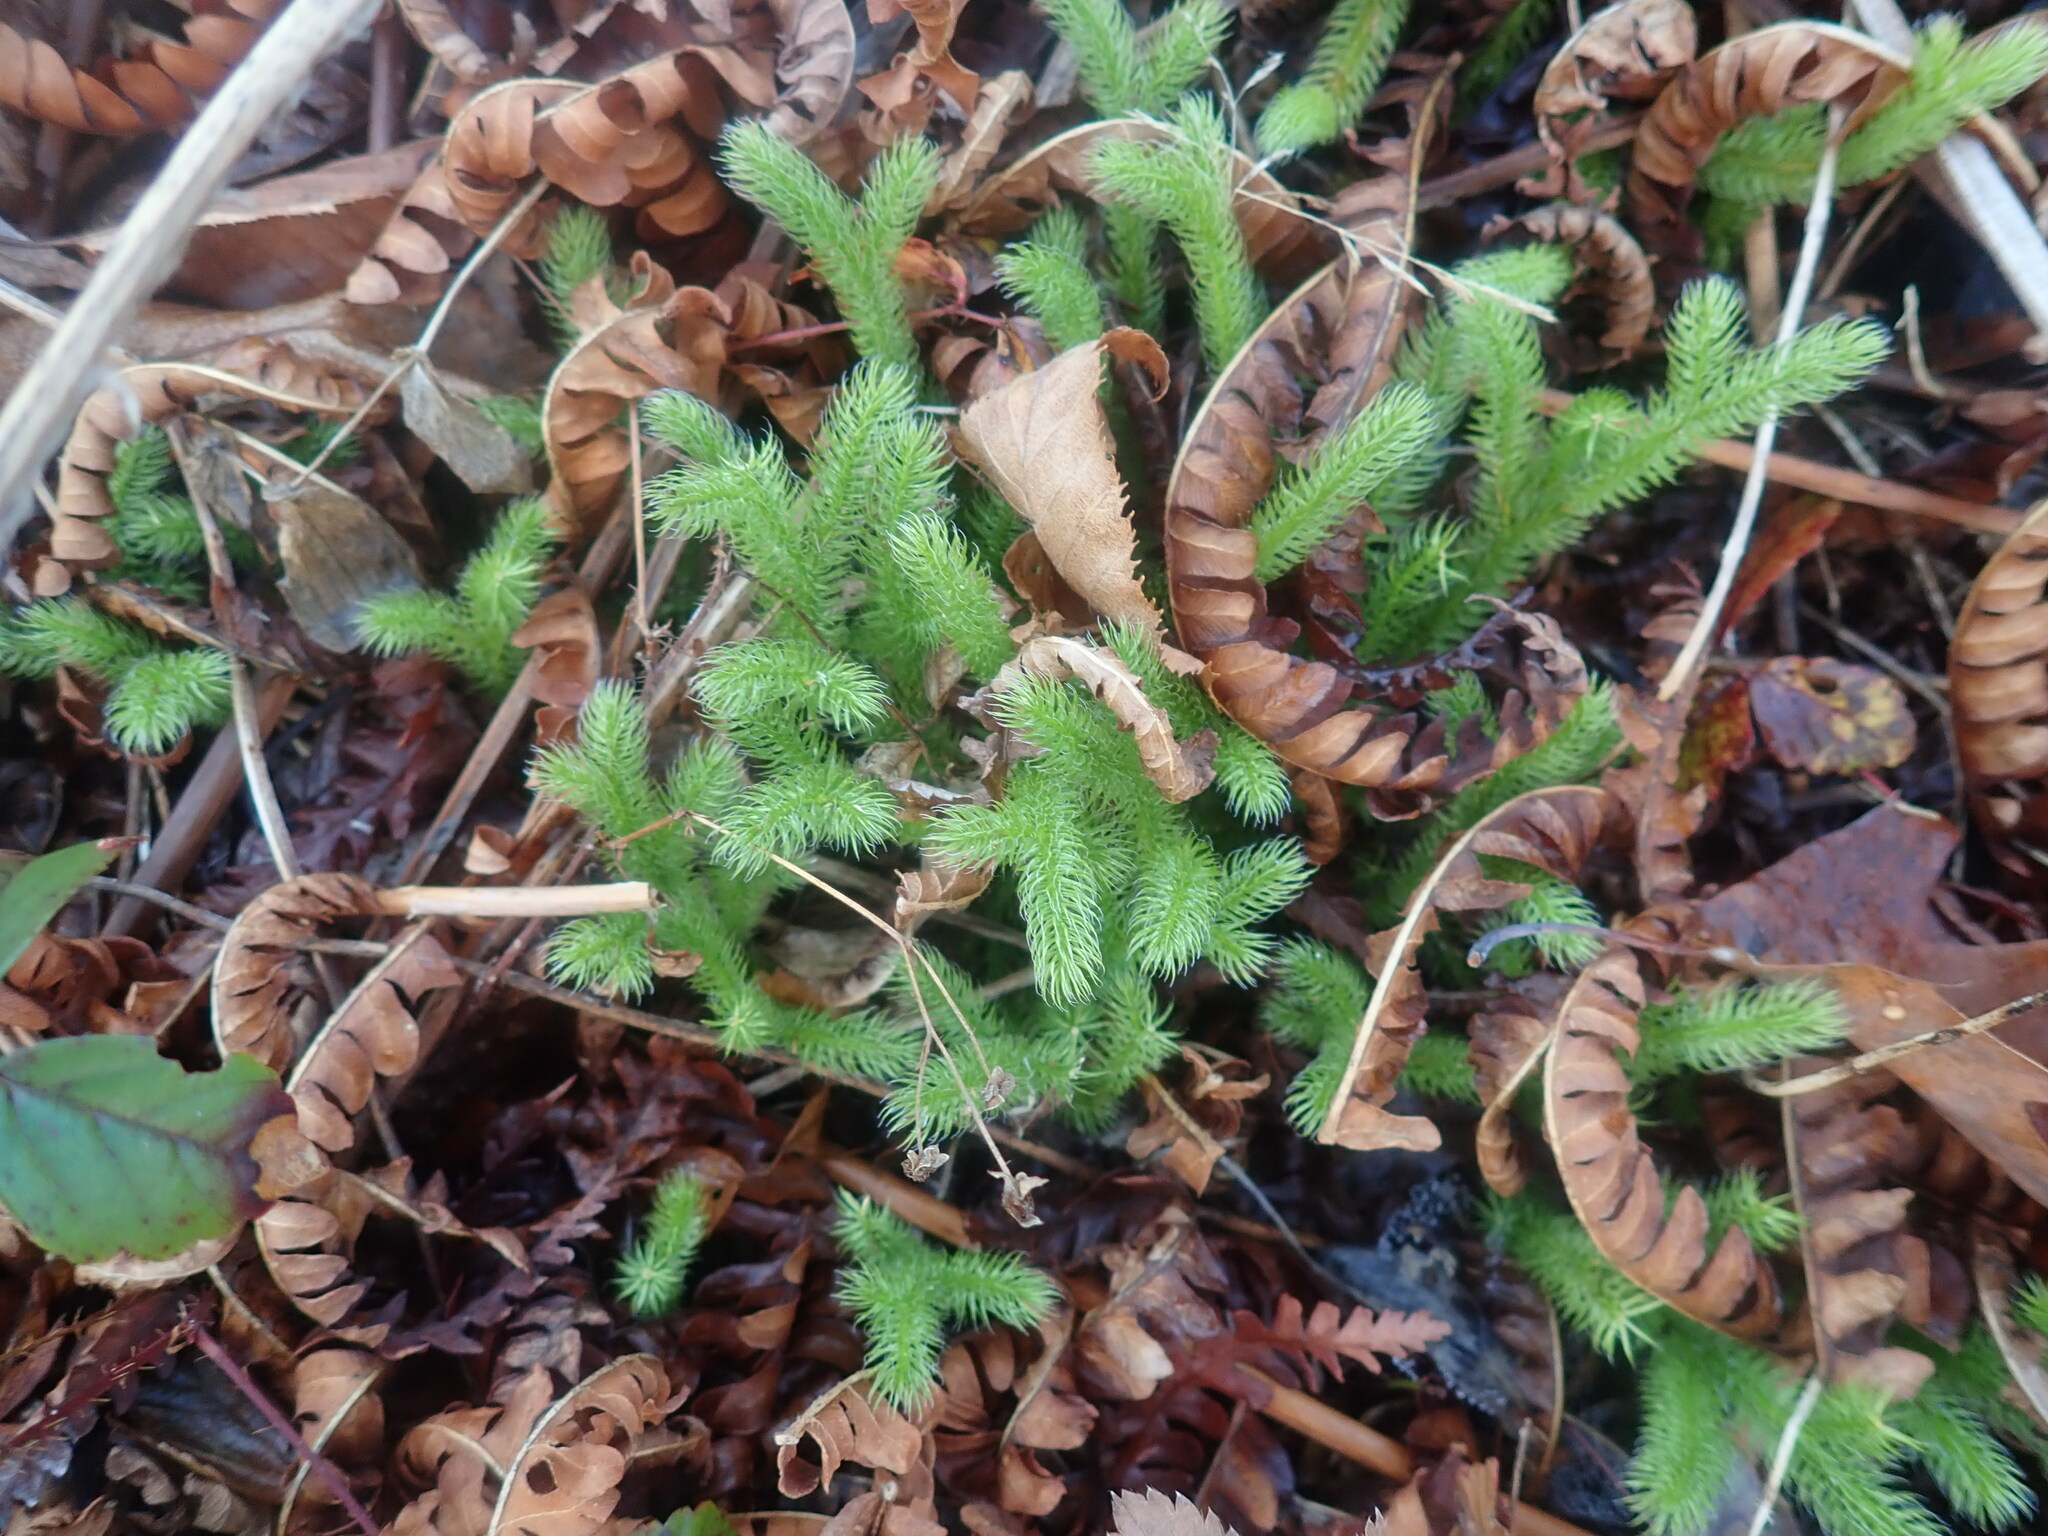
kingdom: Plantae
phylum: Tracheophyta
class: Lycopodiopsida
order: Lycopodiales
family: Lycopodiaceae
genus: Lycopodium
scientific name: Lycopodium clavatum
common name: Stag's-horn clubmoss
